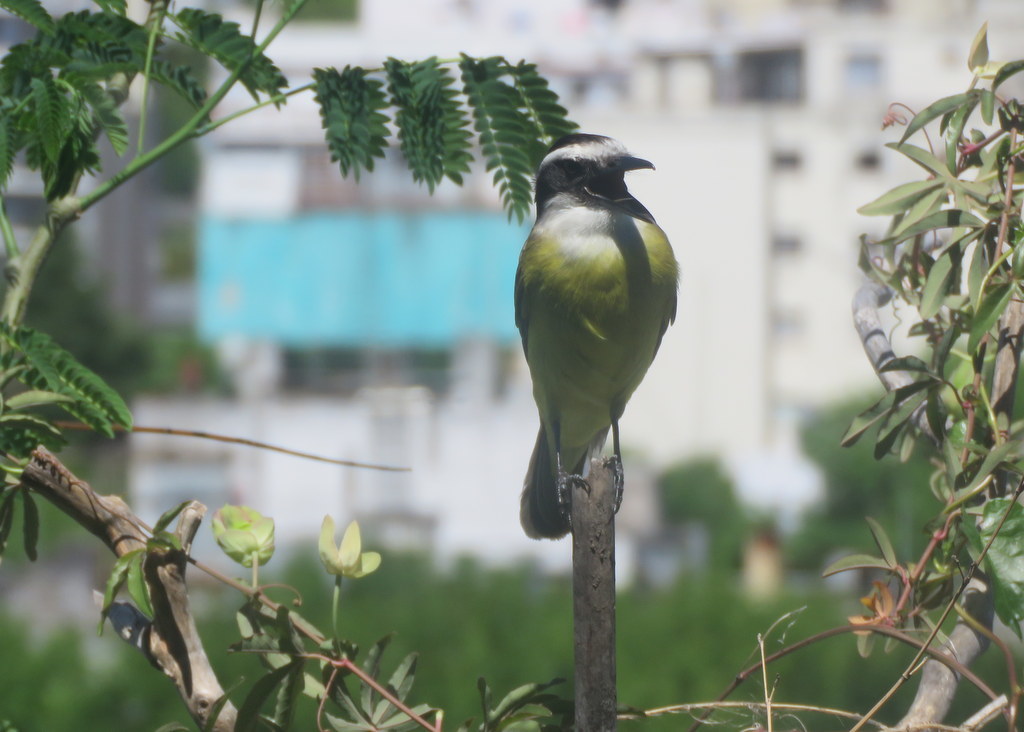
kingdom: Animalia
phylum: Chordata
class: Aves
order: Passeriformes
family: Tyrannidae
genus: Pitangus
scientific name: Pitangus sulphuratus
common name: Great kiskadee
